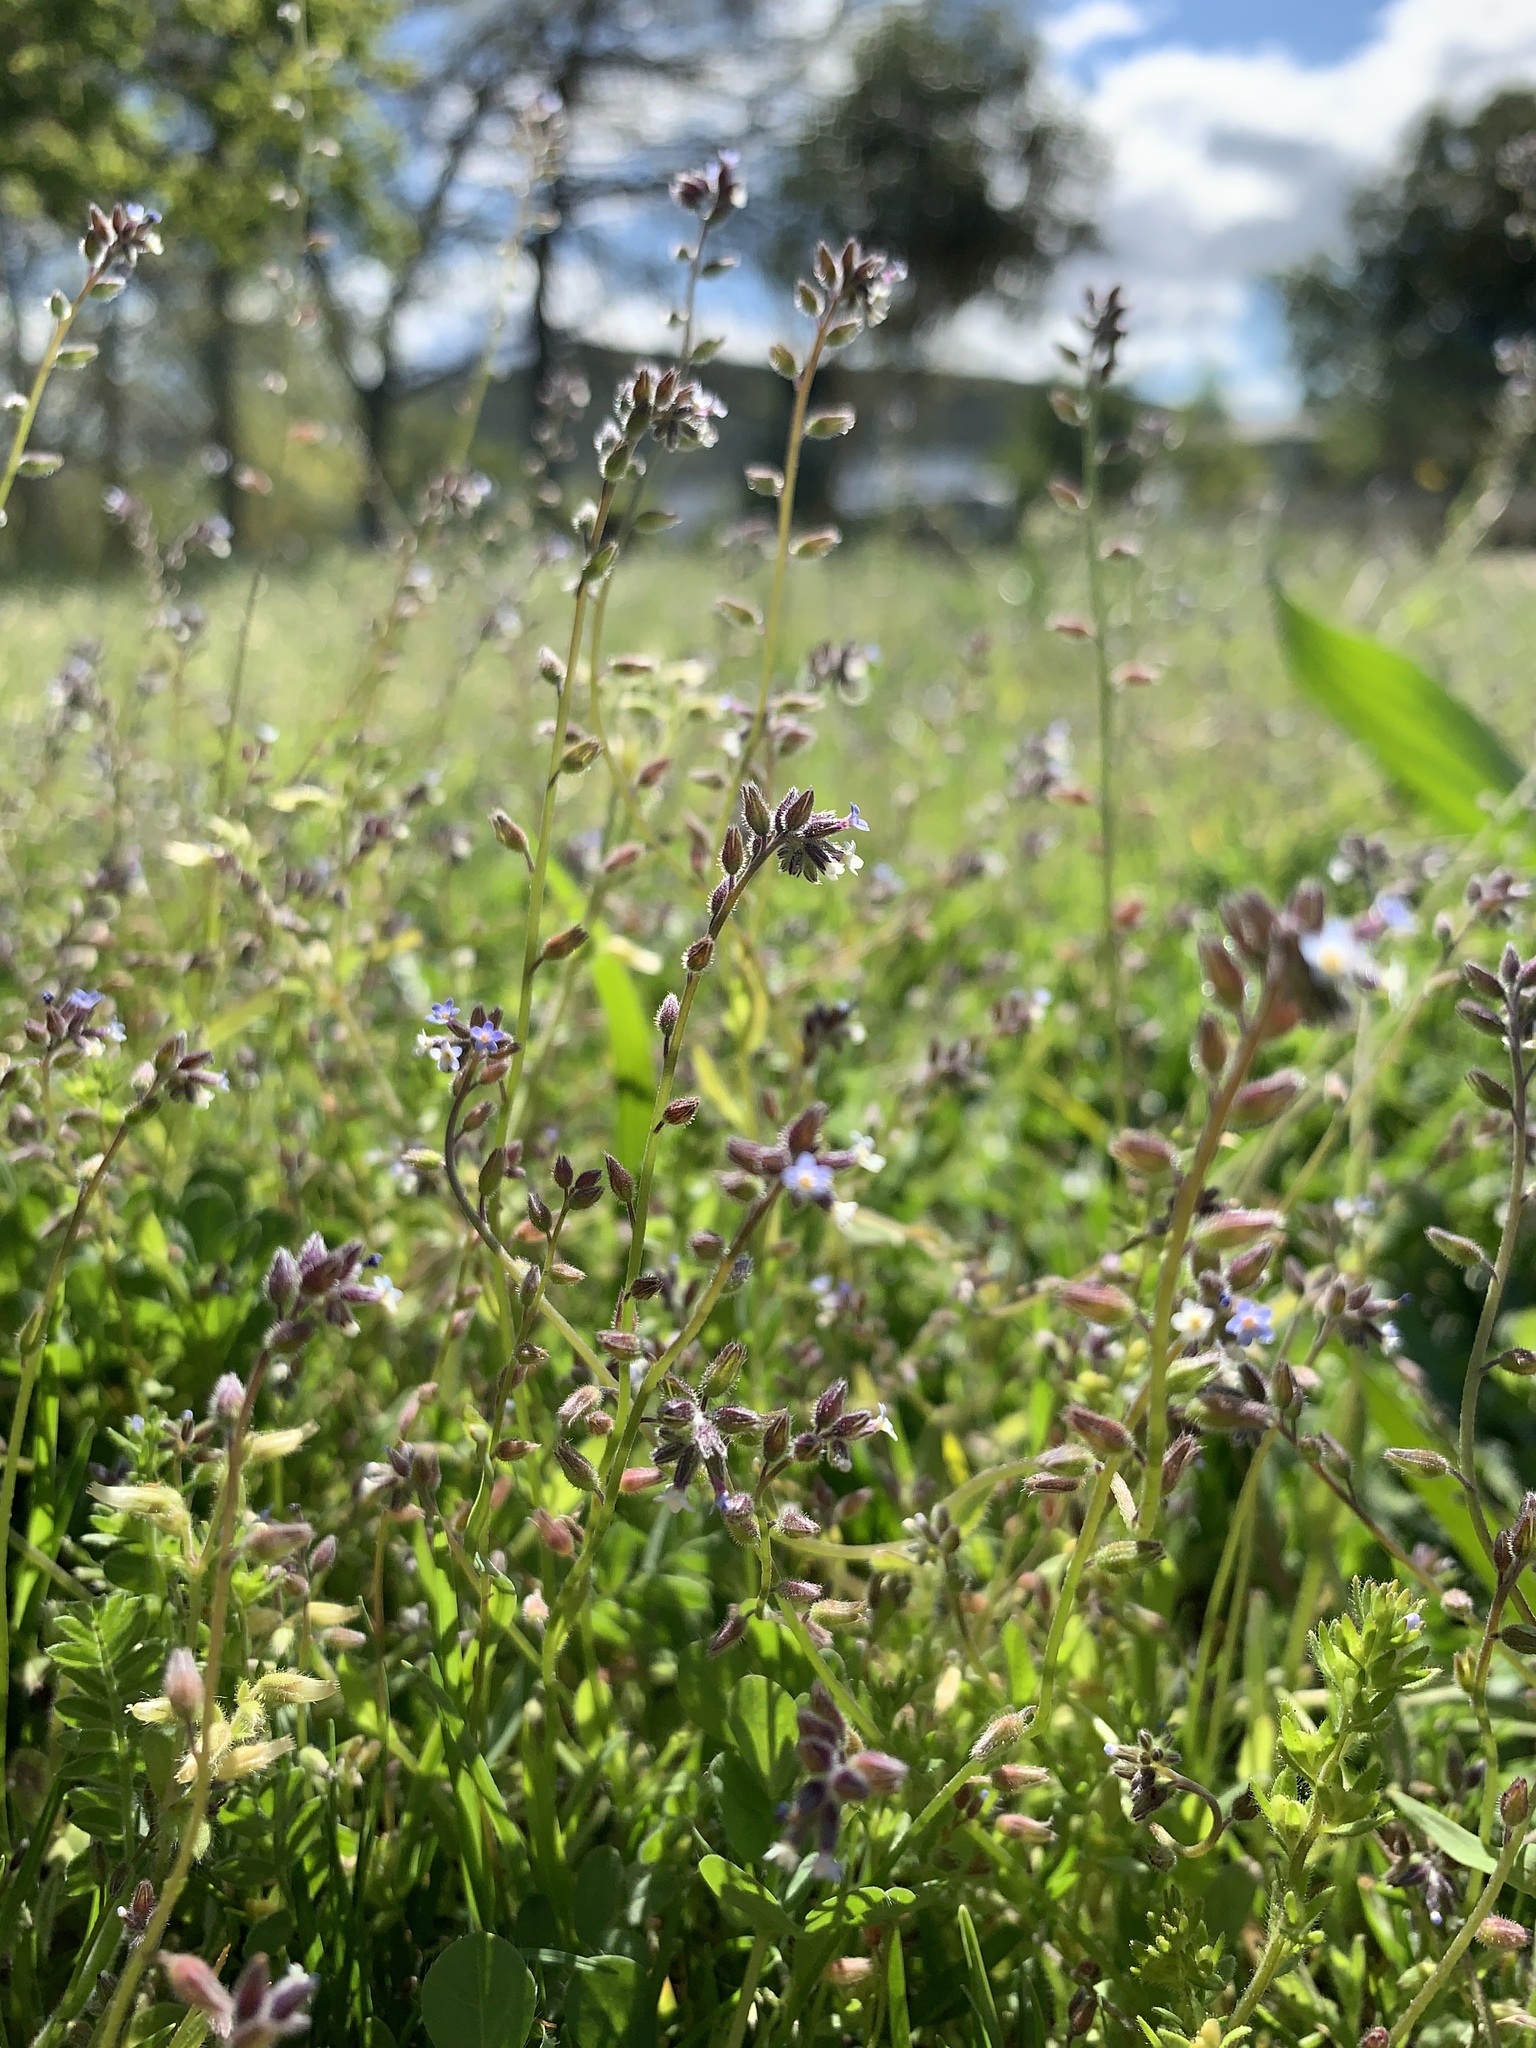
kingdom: Plantae
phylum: Tracheophyta
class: Magnoliopsida
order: Boraginales
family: Boraginaceae
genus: Myosotis
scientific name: Myosotis discolor
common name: Changing forget-me-not
